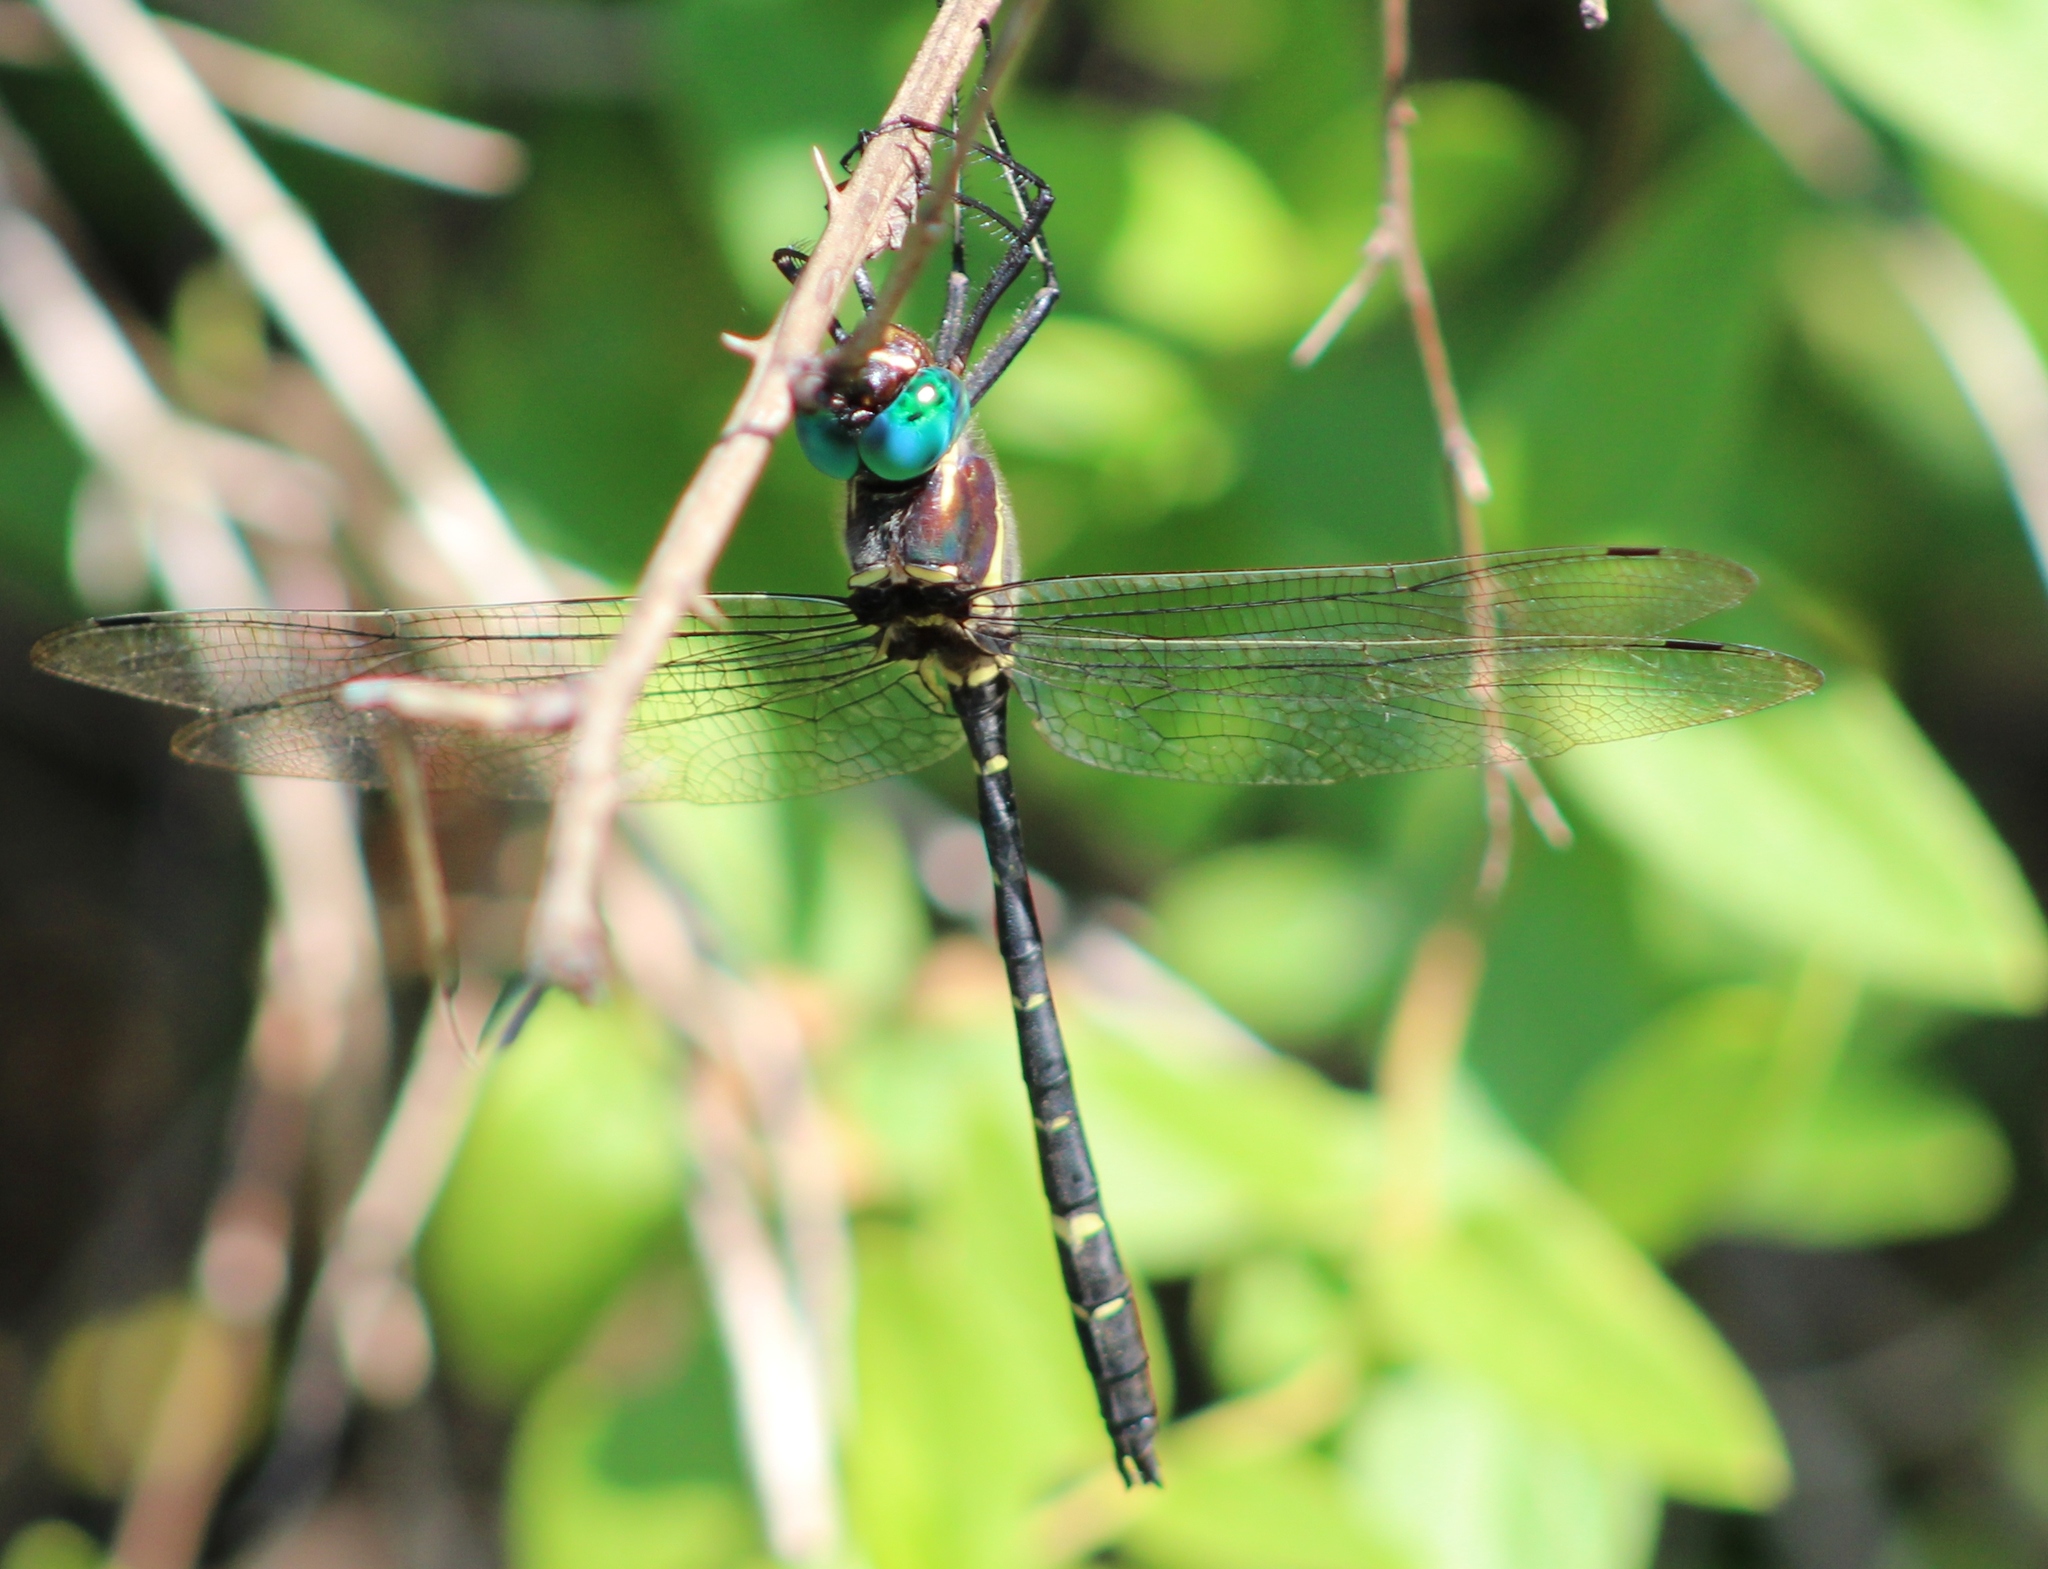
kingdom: Animalia
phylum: Arthropoda
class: Insecta
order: Odonata
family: Macromiidae
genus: Macromia
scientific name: Macromia taeniolata
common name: Royal river cruiser
